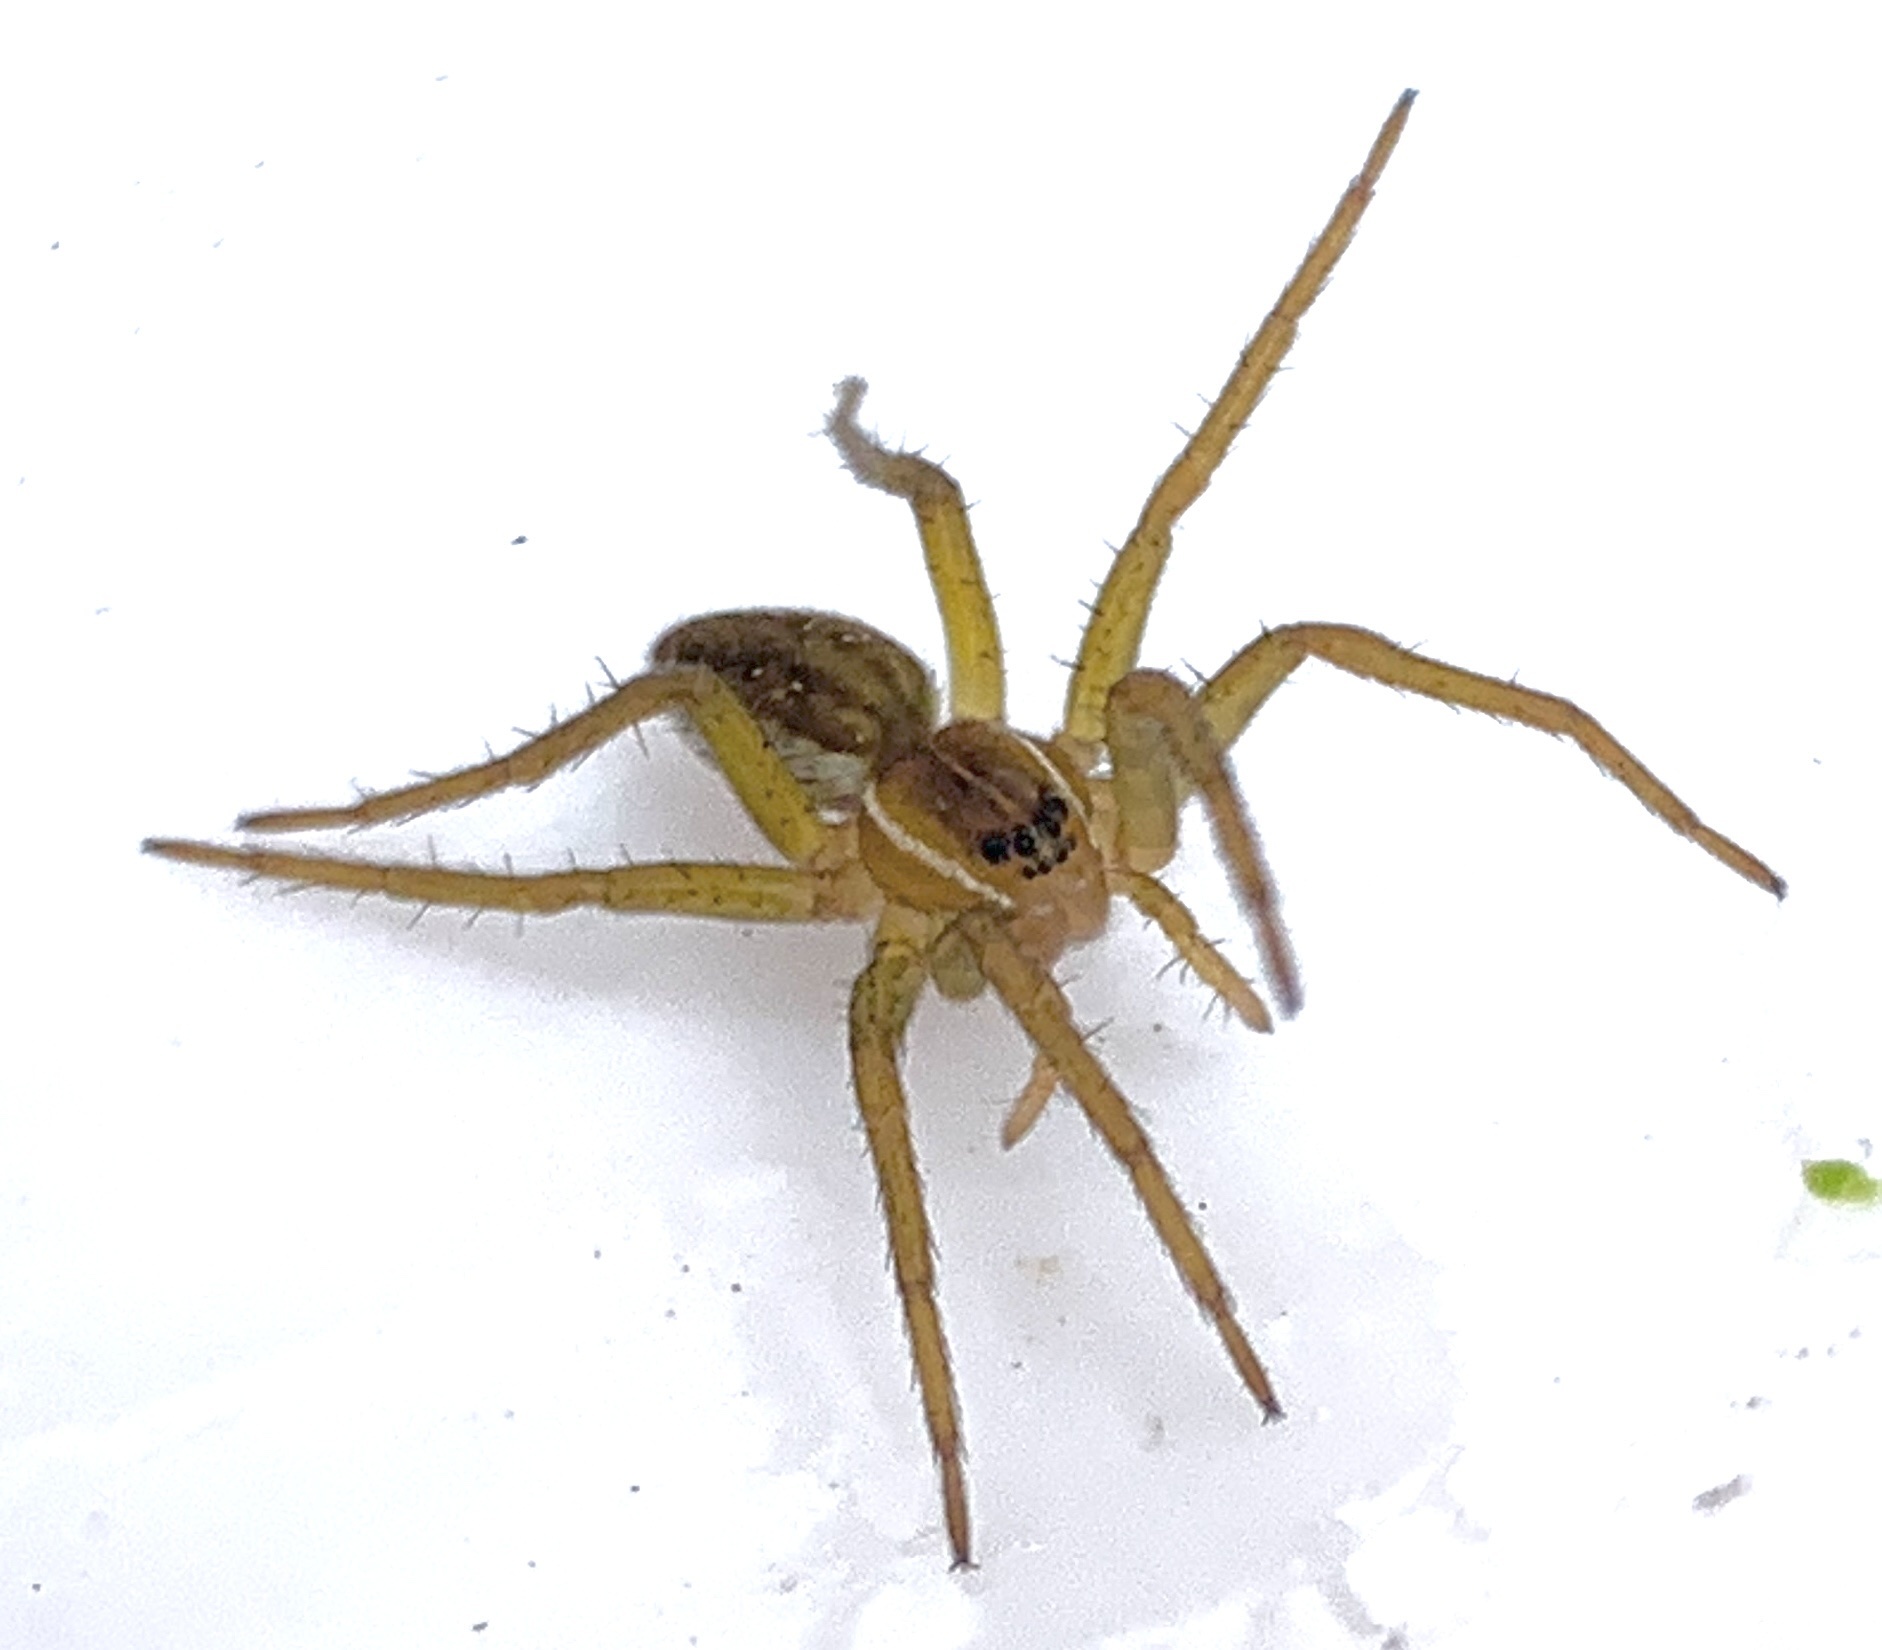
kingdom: Animalia
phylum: Arthropoda
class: Arachnida
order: Araneae
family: Pisauridae
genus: Dolomedes
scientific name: Dolomedes triton
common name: Six-spotted fishing spider
